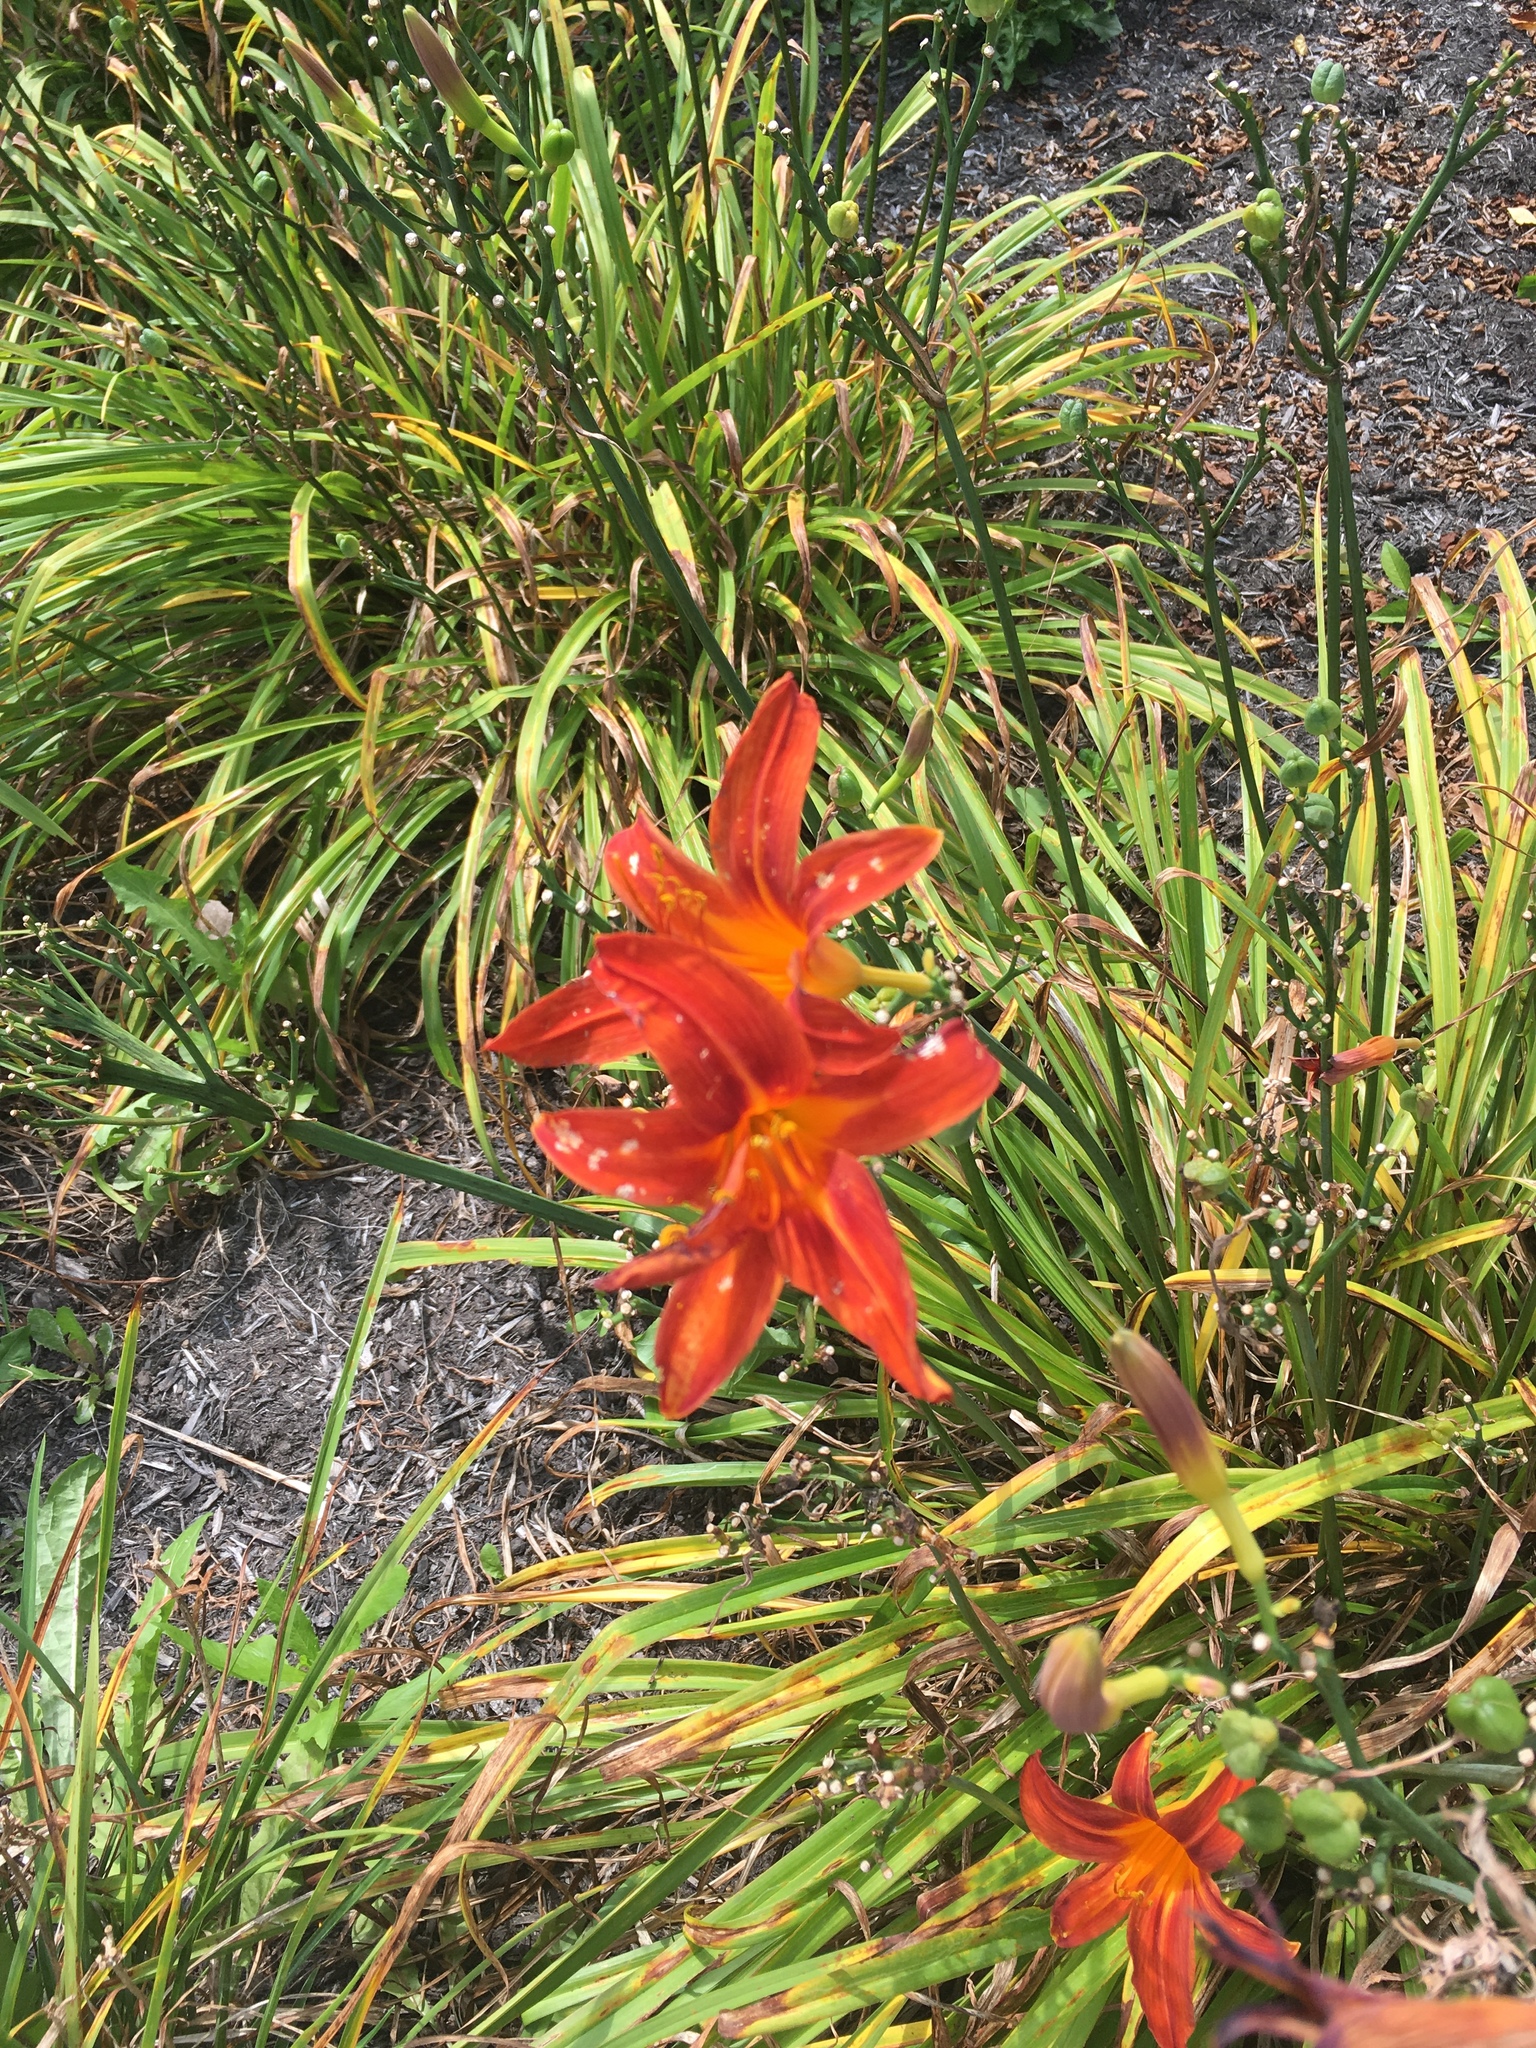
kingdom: Plantae
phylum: Tracheophyta
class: Liliopsida
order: Asparagales
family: Asphodelaceae
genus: Hemerocallis
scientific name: Hemerocallis fulva
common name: Orange day-lily
